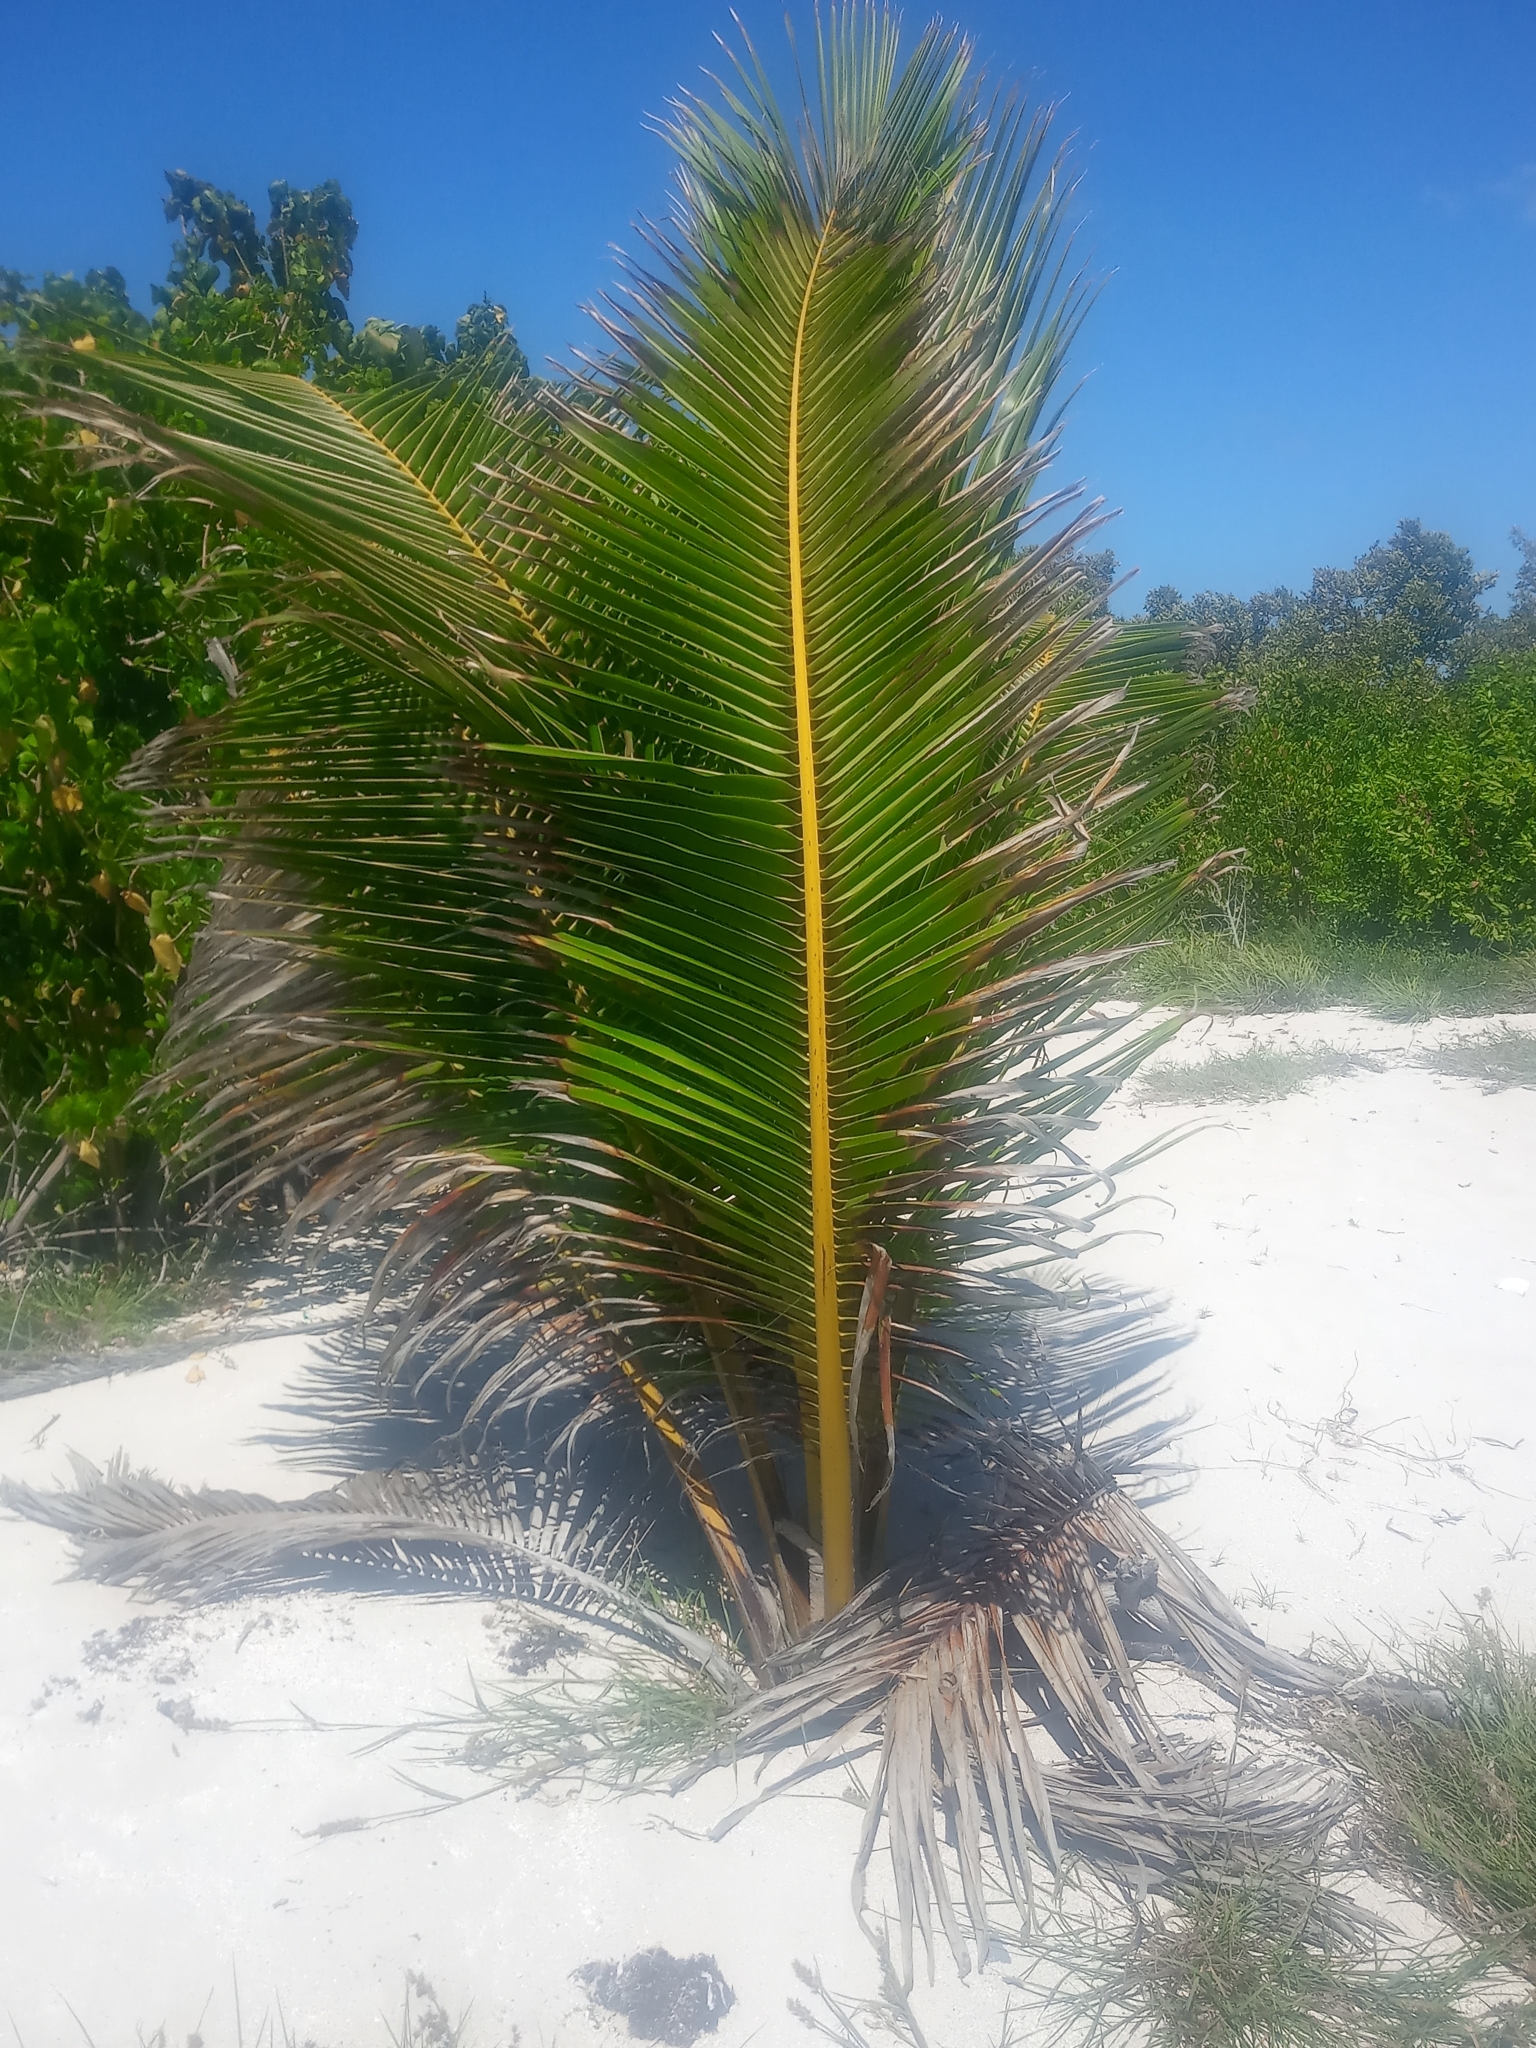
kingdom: Plantae
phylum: Tracheophyta
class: Liliopsida
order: Arecales
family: Arecaceae
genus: Cocos
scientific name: Cocos nucifera
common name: Coconut palm
